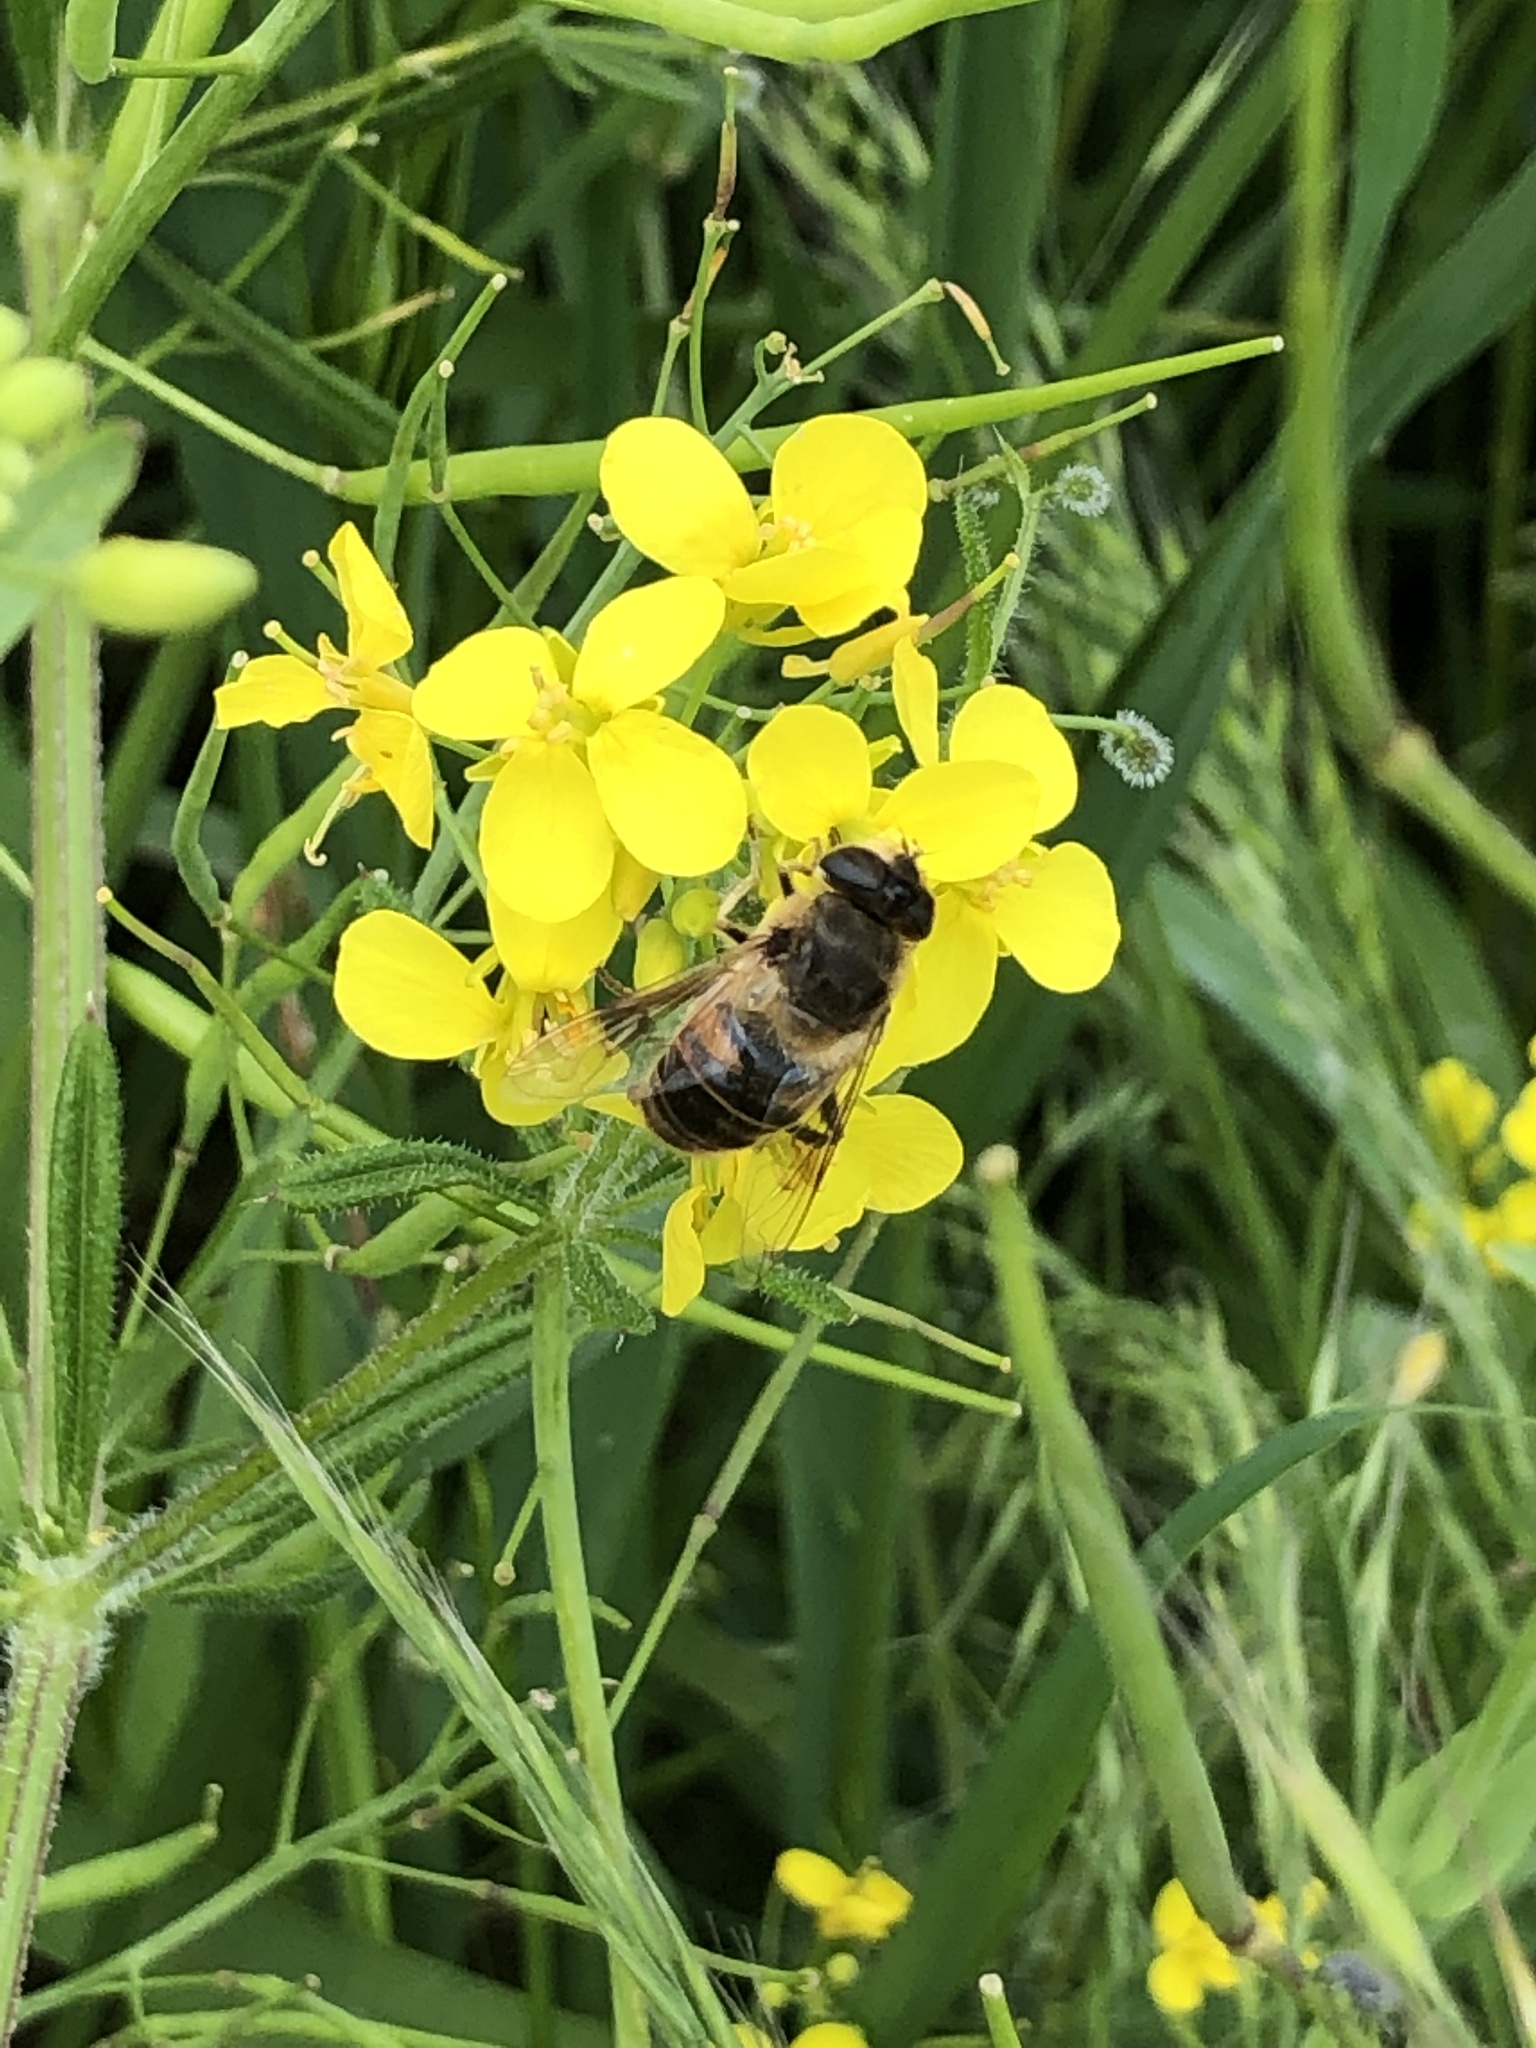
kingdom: Animalia
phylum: Arthropoda
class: Insecta
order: Diptera
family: Syrphidae
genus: Eristalis
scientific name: Eristalis tenax
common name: Drone fly
